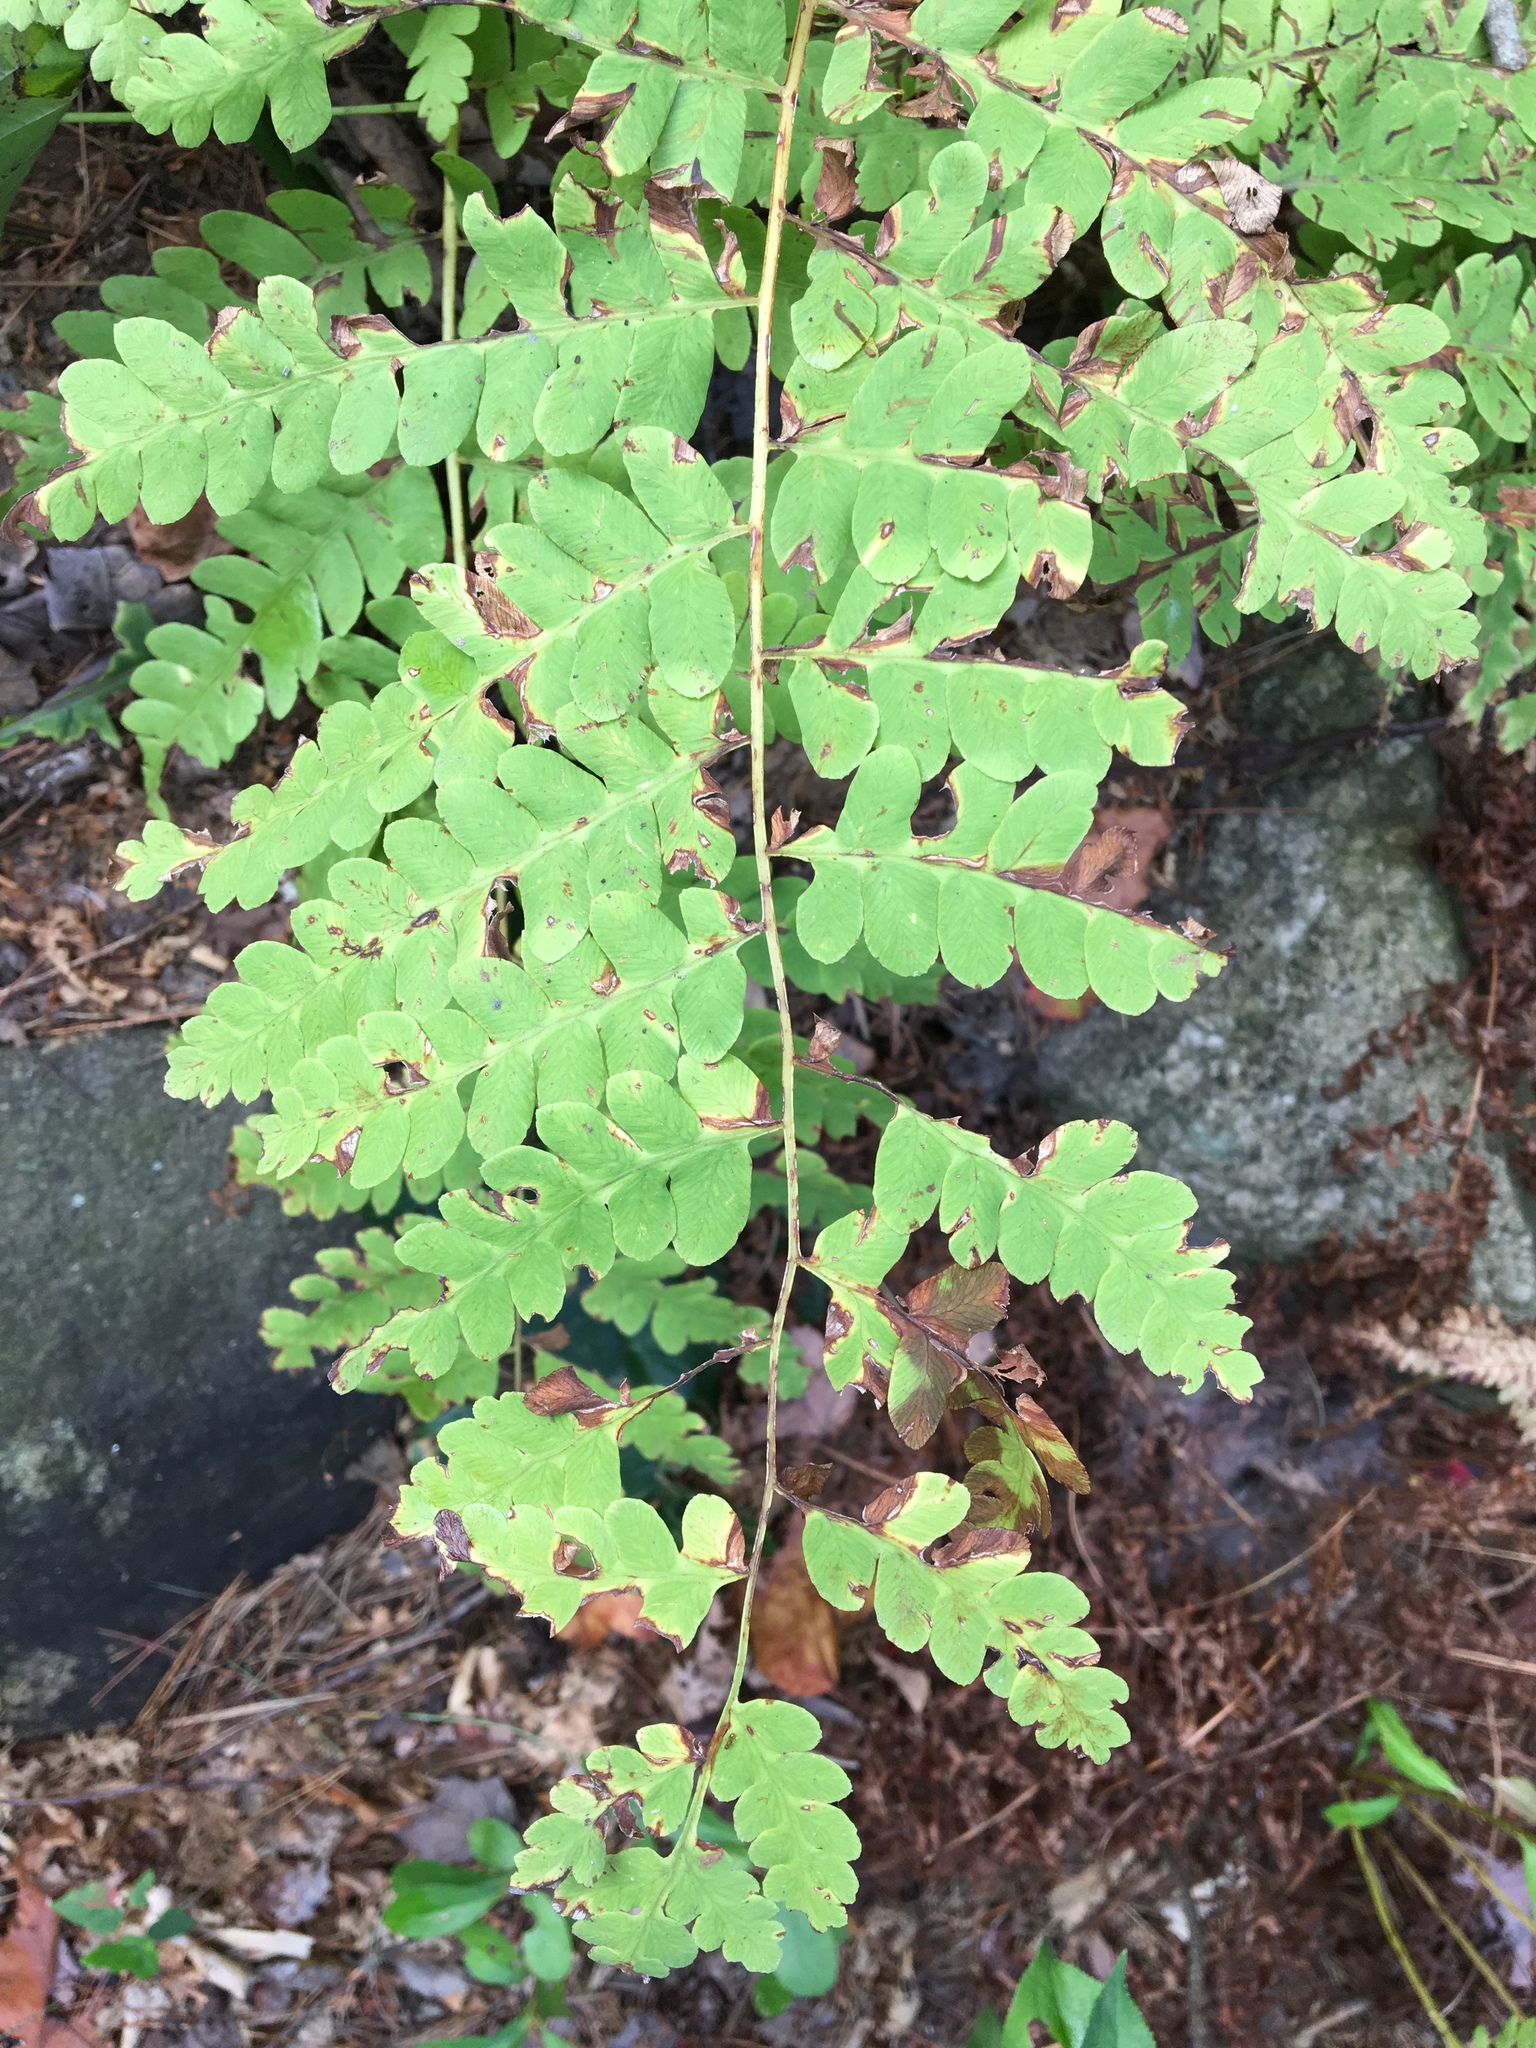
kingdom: Plantae
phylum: Tracheophyta
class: Polypodiopsida
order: Osmundales
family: Osmundaceae
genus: Claytosmunda
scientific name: Claytosmunda claytoniana
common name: Clayton's fern
